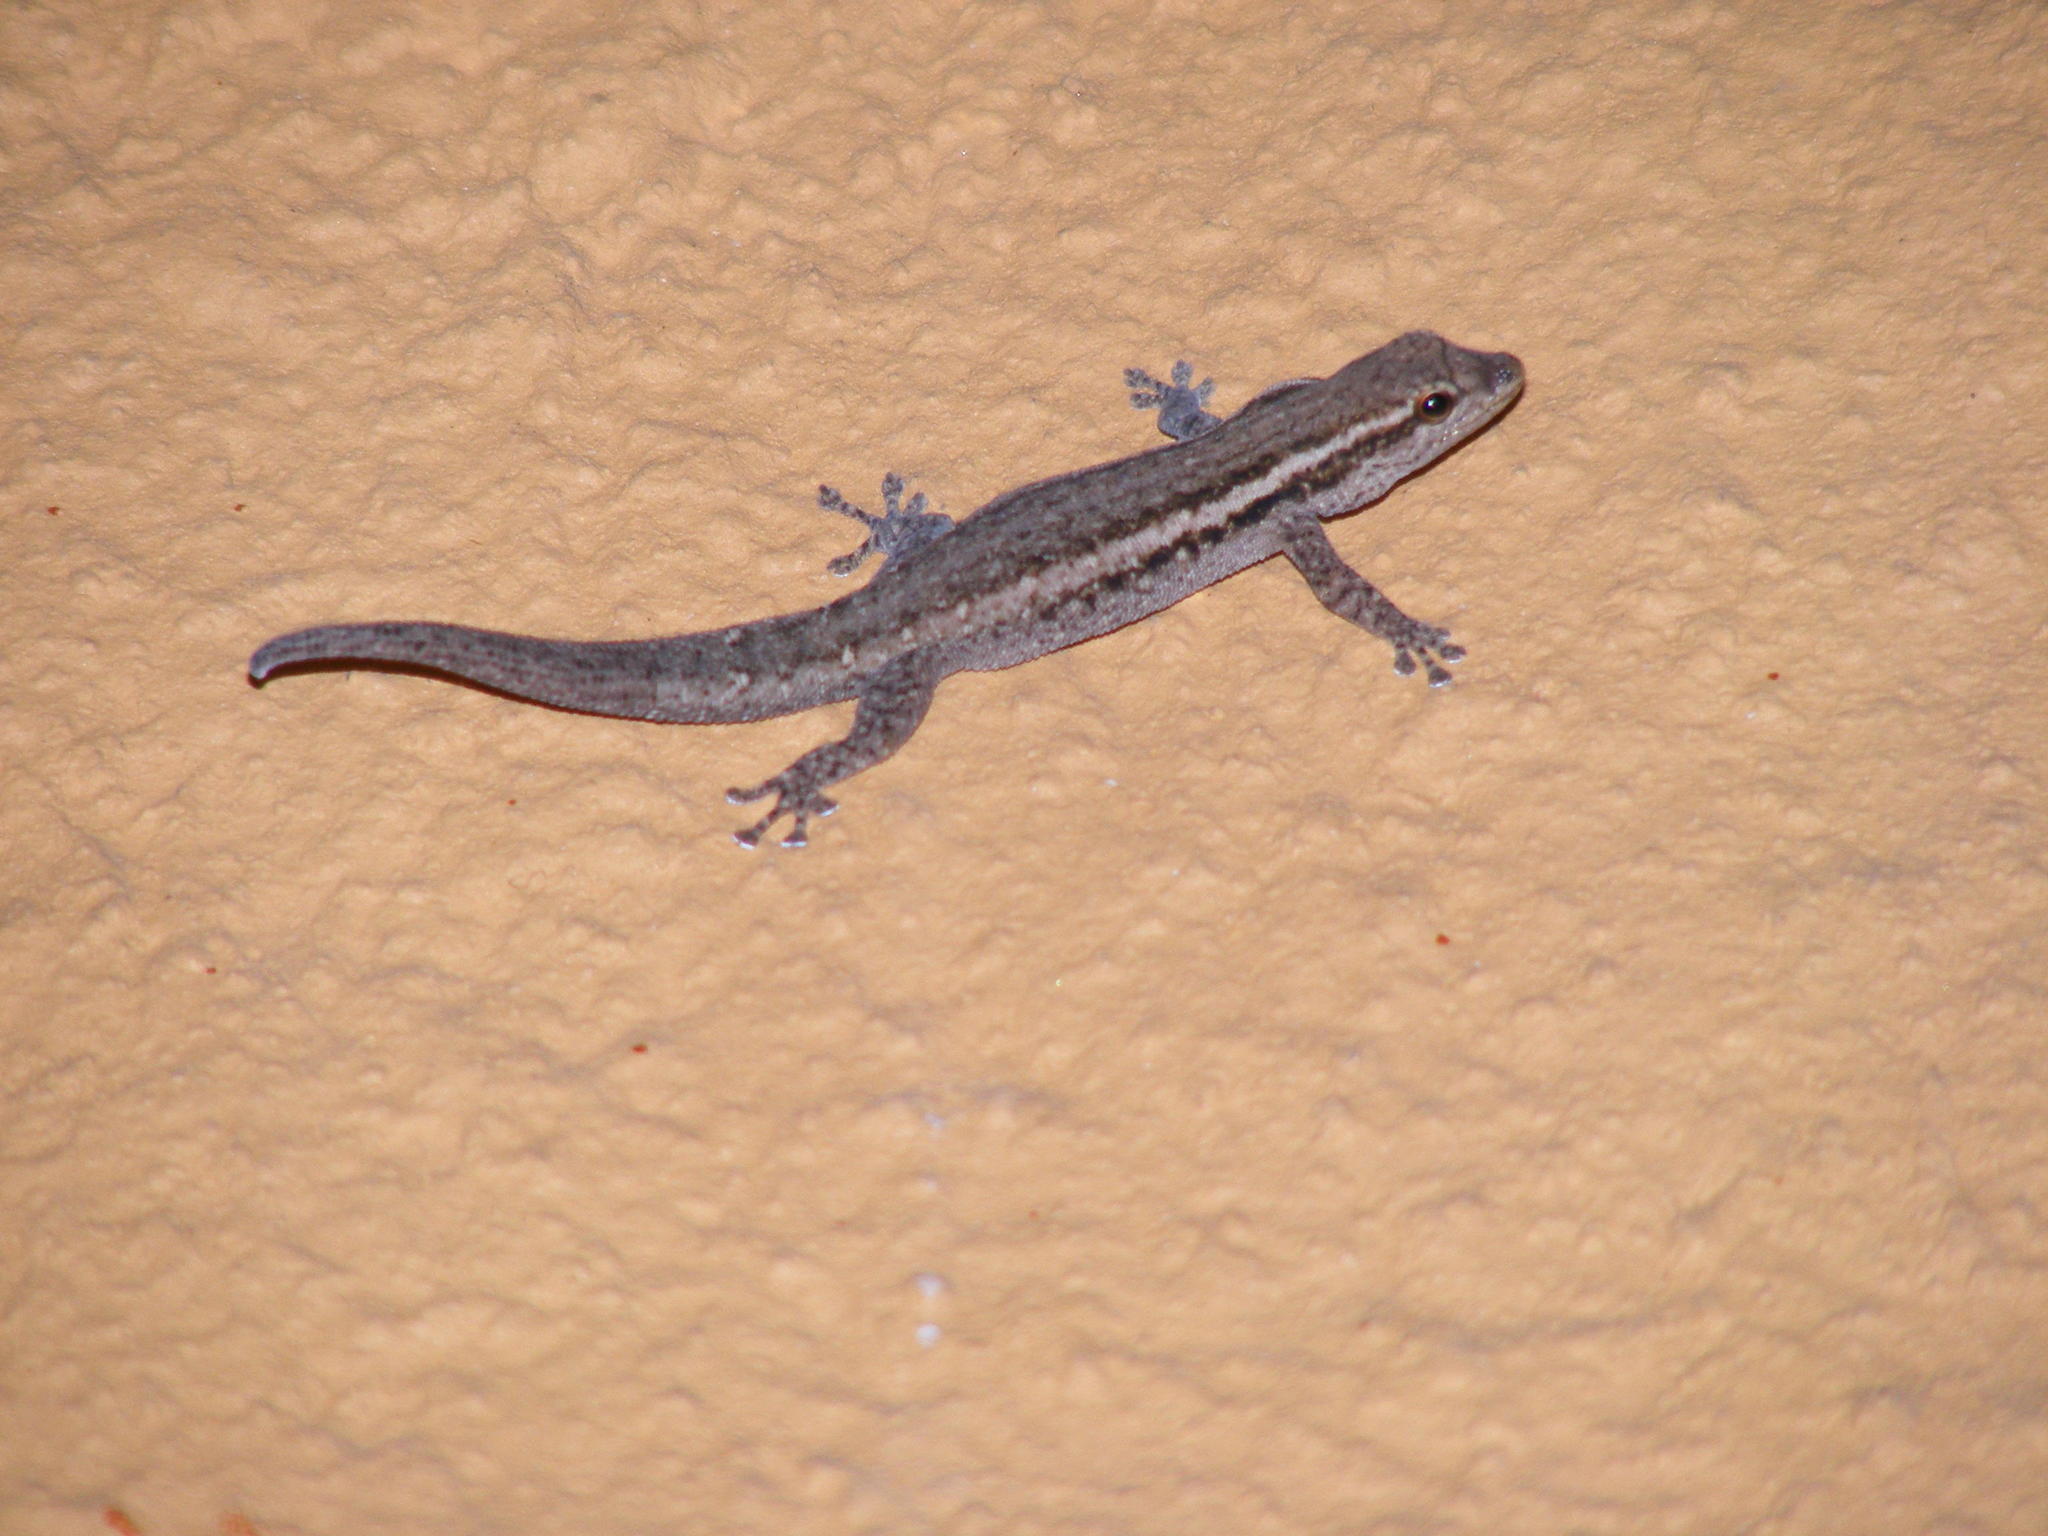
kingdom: Animalia
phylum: Chordata
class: Squamata
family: Gekkonidae
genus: Lygodactylus
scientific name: Lygodactylus capensis
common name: Cape dwarf gecko
